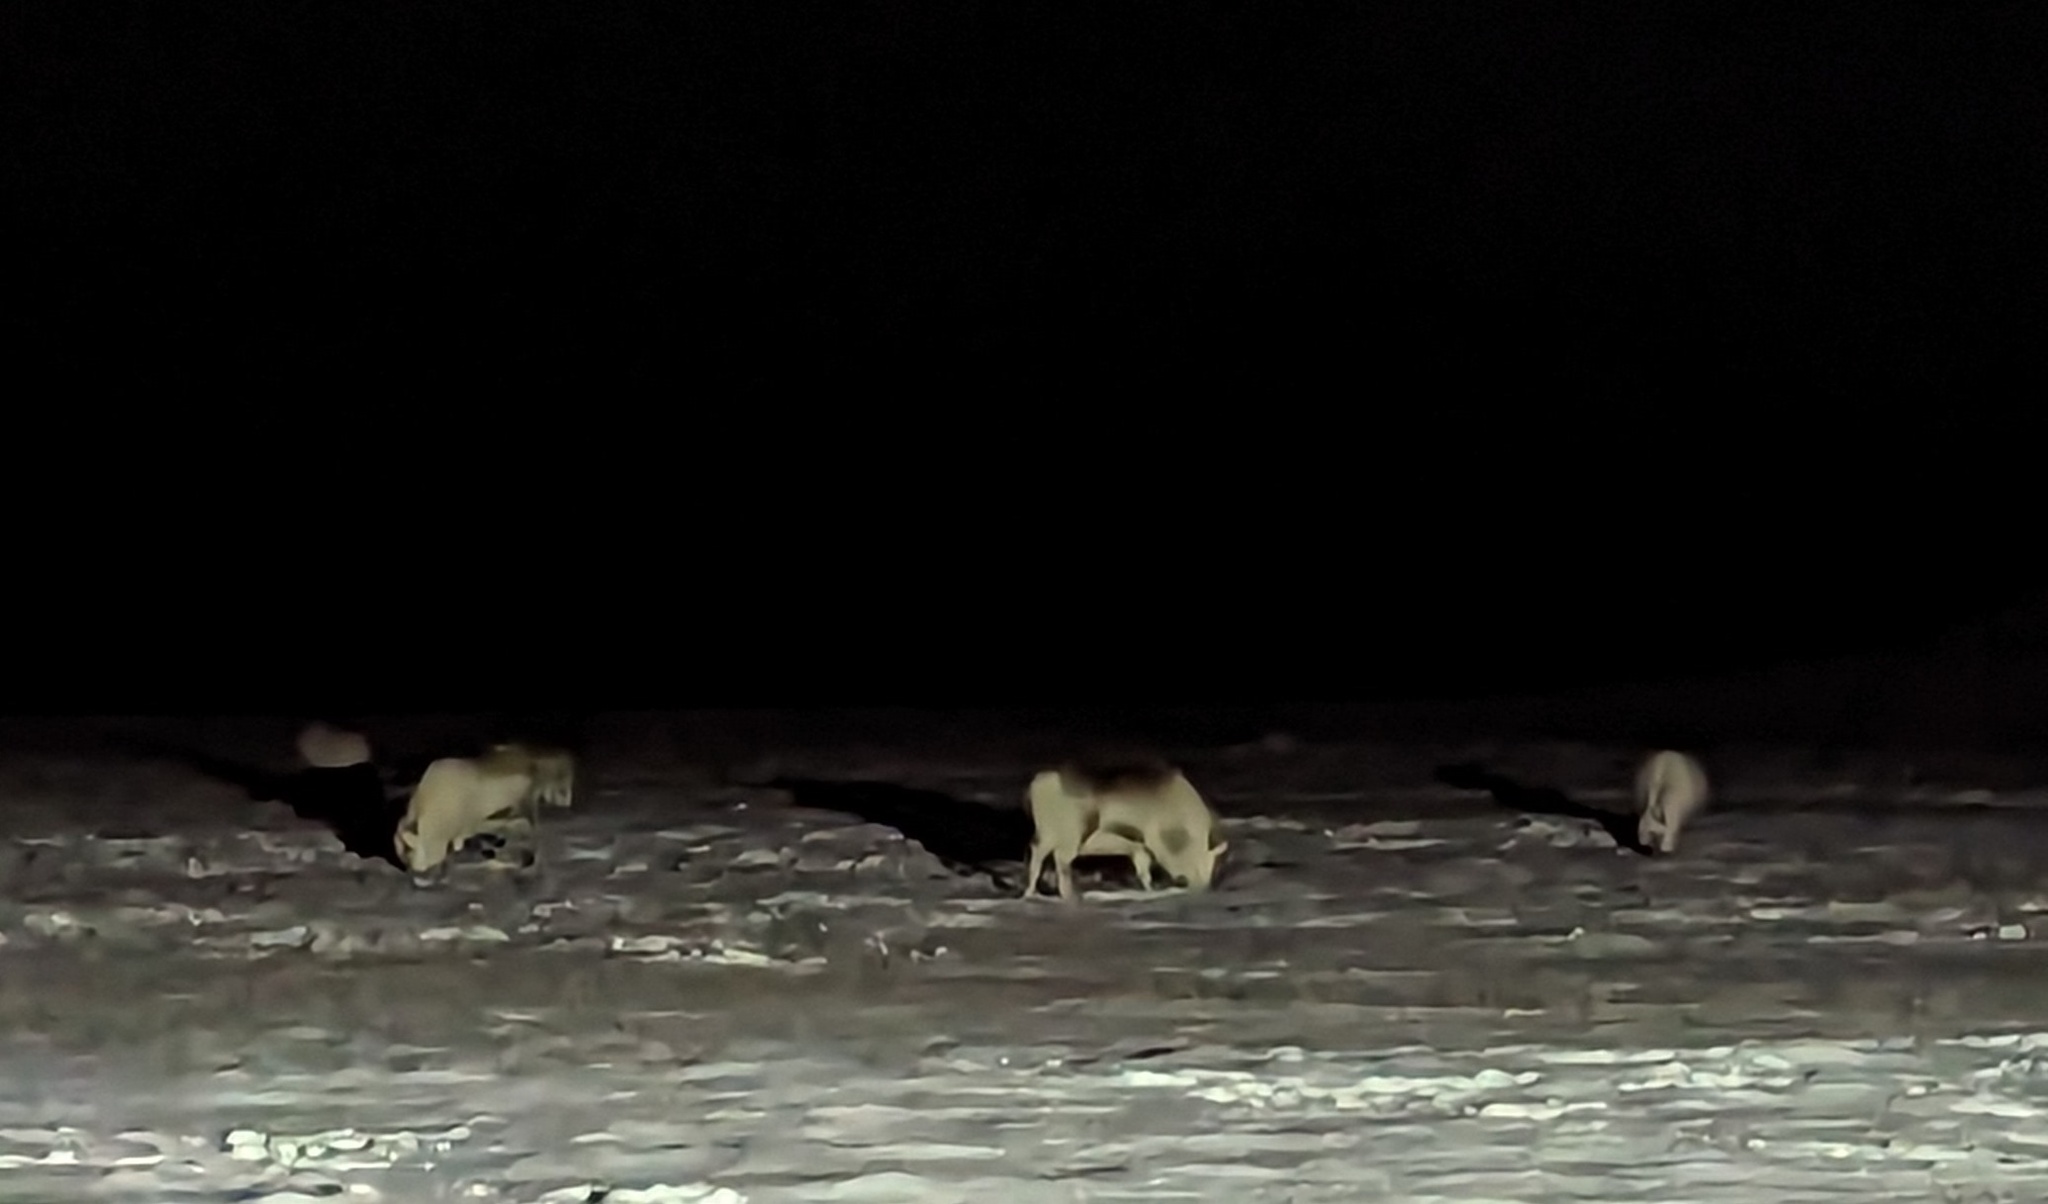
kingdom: Animalia
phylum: Chordata
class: Mammalia
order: Artiodactyla
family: Cervidae
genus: Rangifer
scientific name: Rangifer tarandus
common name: Reindeer
